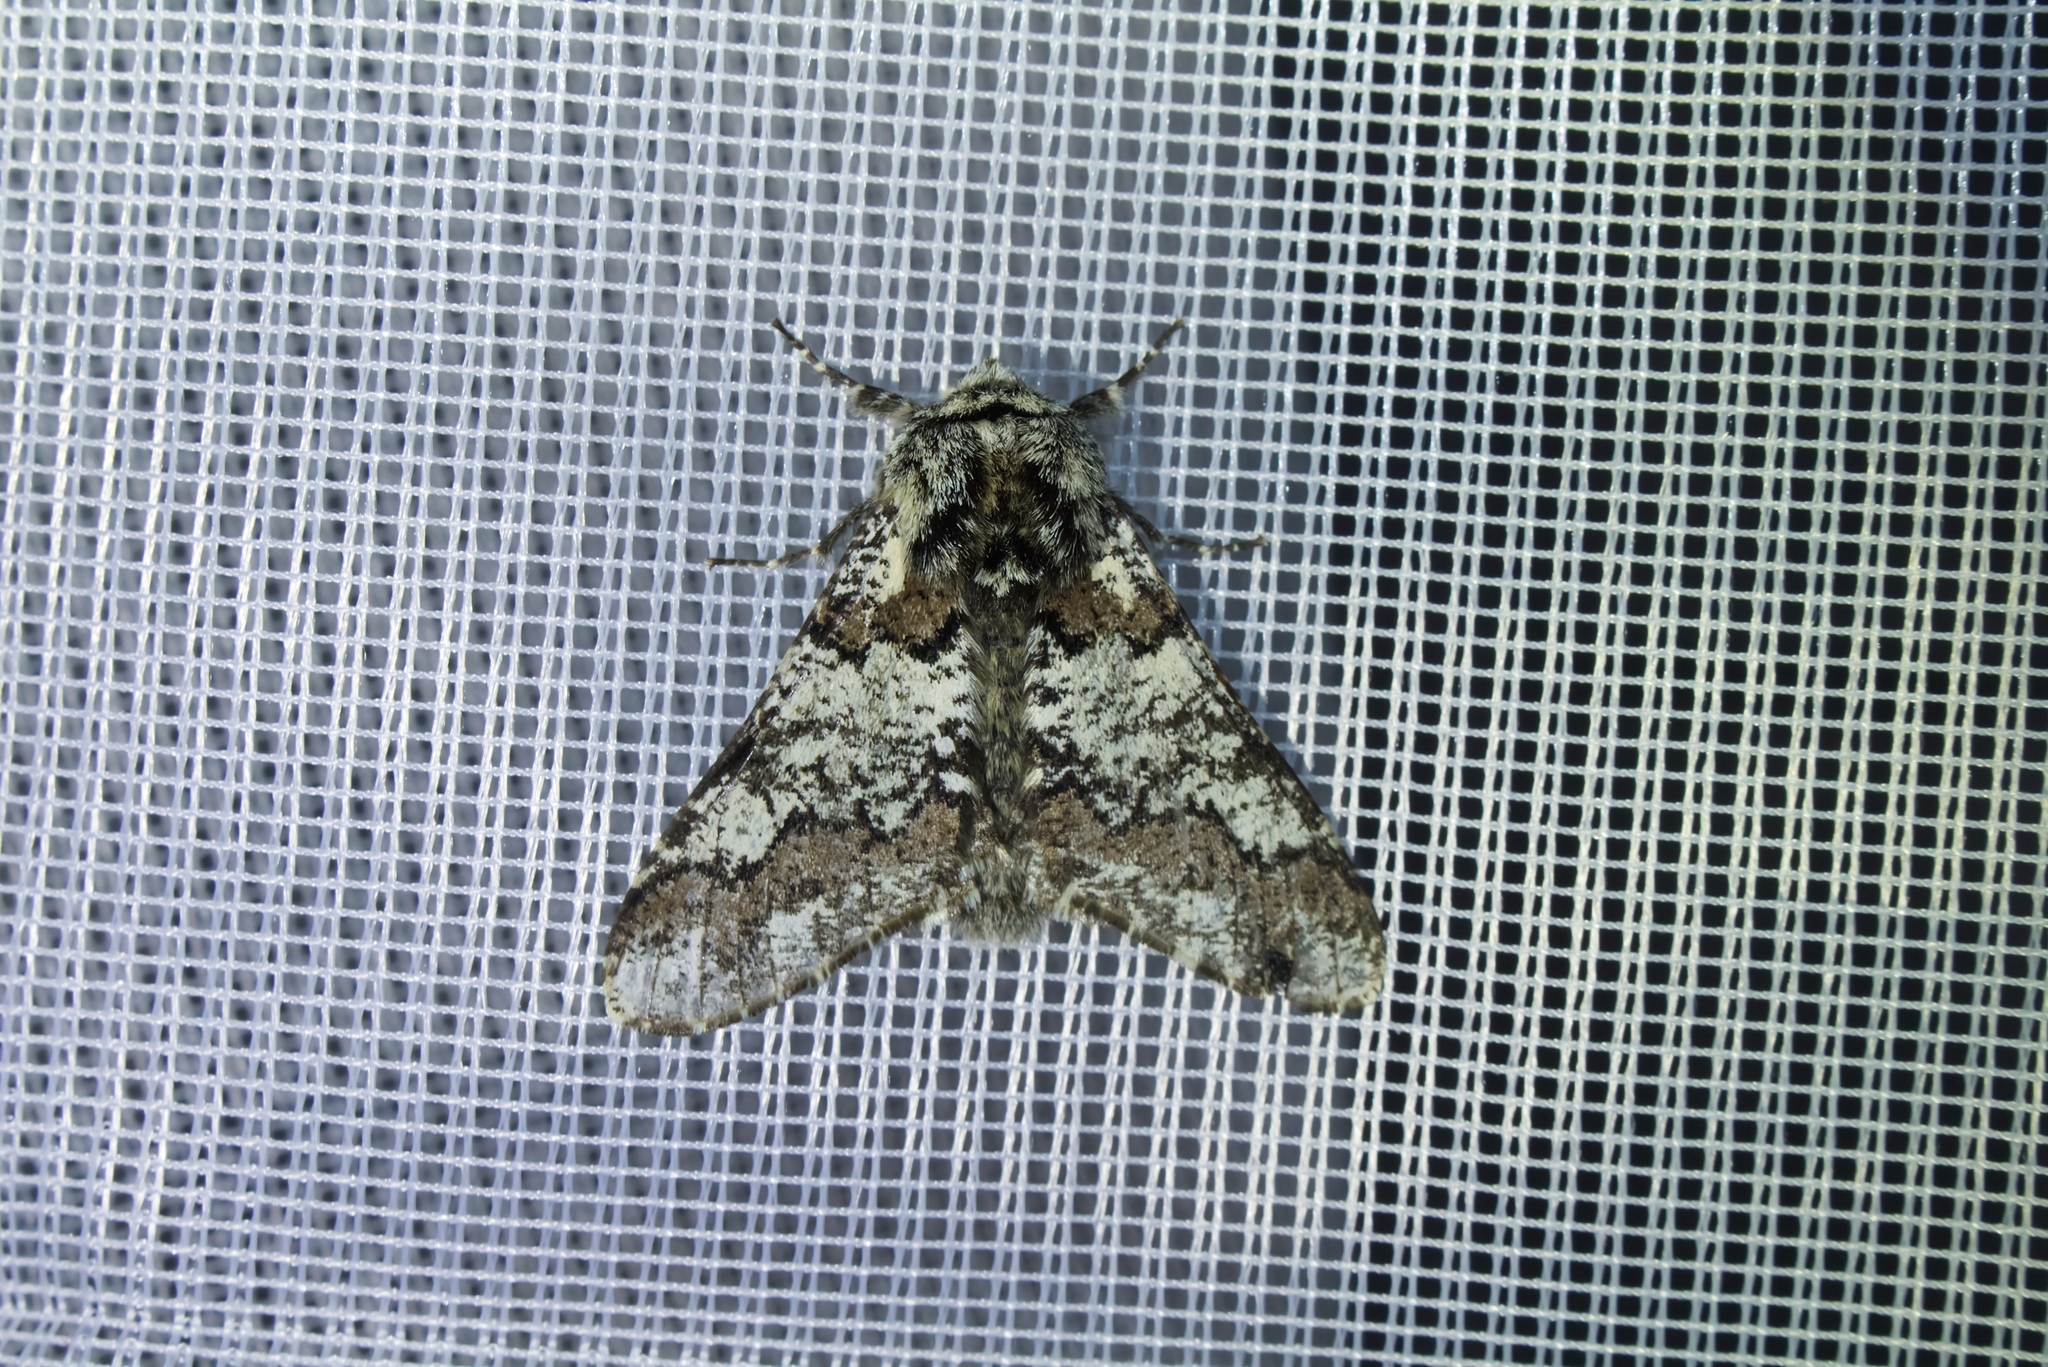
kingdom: Animalia
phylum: Arthropoda
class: Insecta
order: Lepidoptera
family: Geometridae
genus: Biston
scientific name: Biston strataria
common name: Oak beauty
